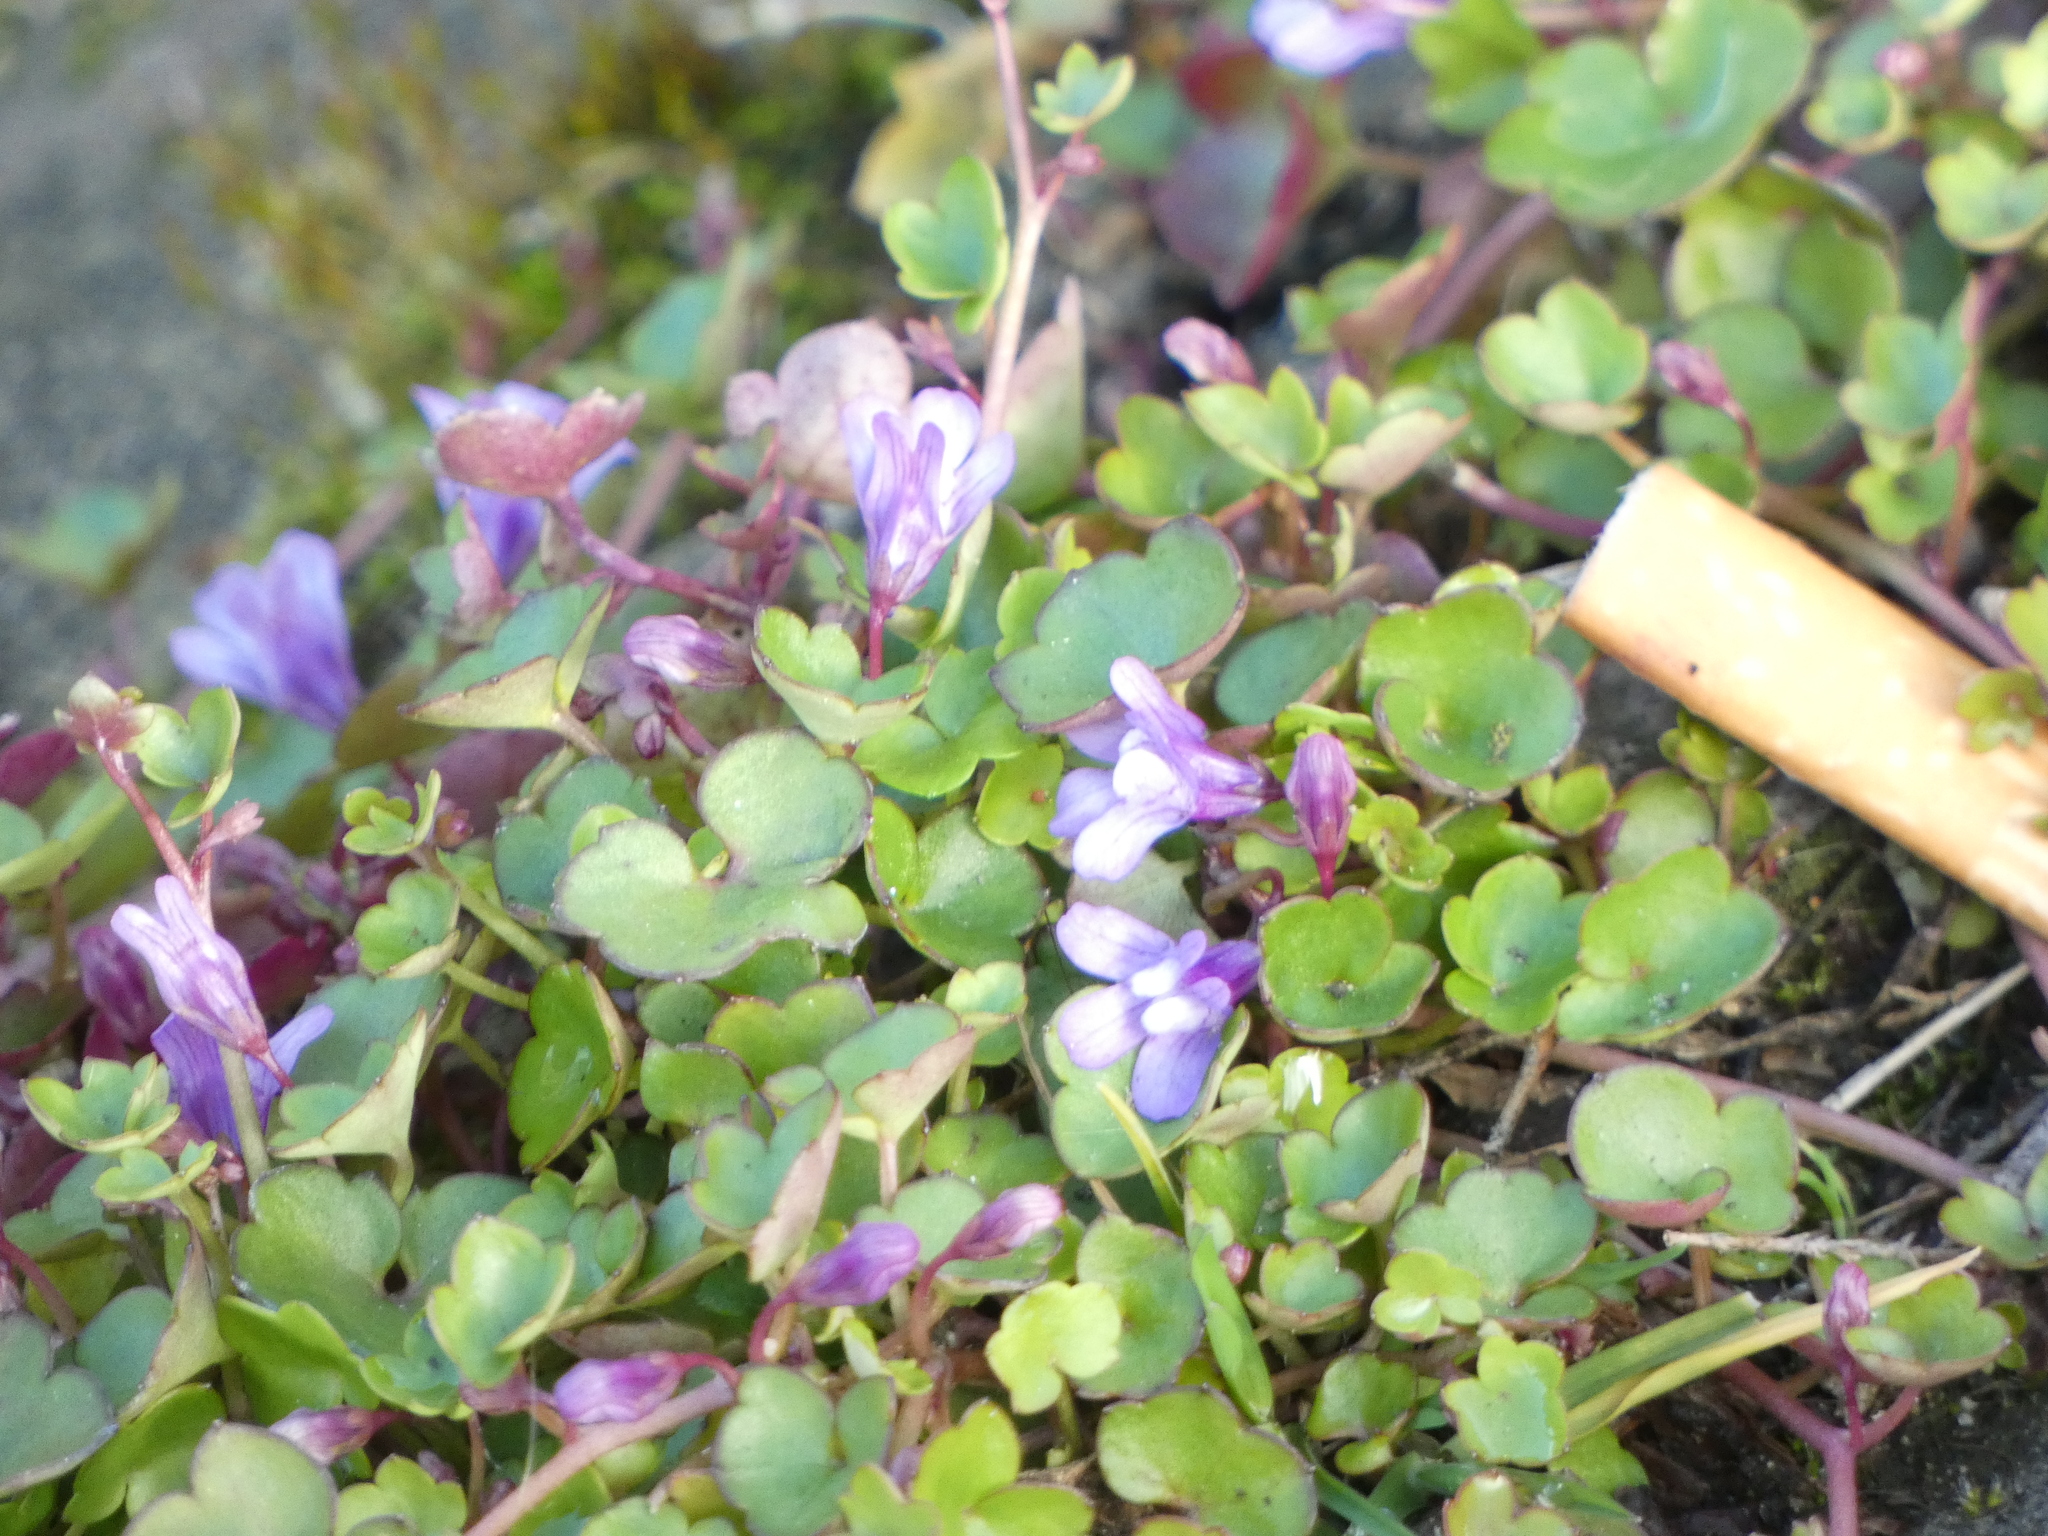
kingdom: Plantae
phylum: Tracheophyta
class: Magnoliopsida
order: Lamiales
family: Plantaginaceae
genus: Cymbalaria
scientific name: Cymbalaria muralis
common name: Ivy-leaved toadflax
